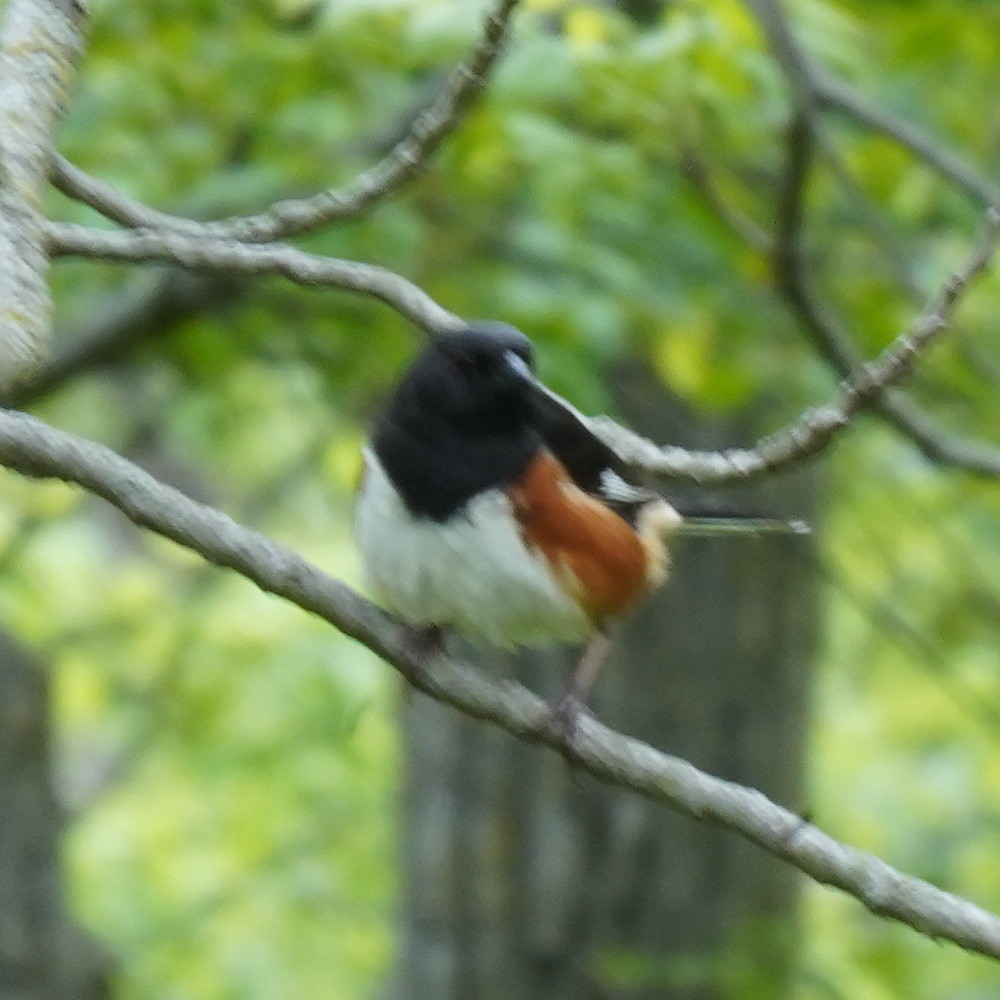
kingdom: Animalia
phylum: Chordata
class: Aves
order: Passeriformes
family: Passerellidae
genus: Pipilo
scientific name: Pipilo erythrophthalmus
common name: Eastern towhee
